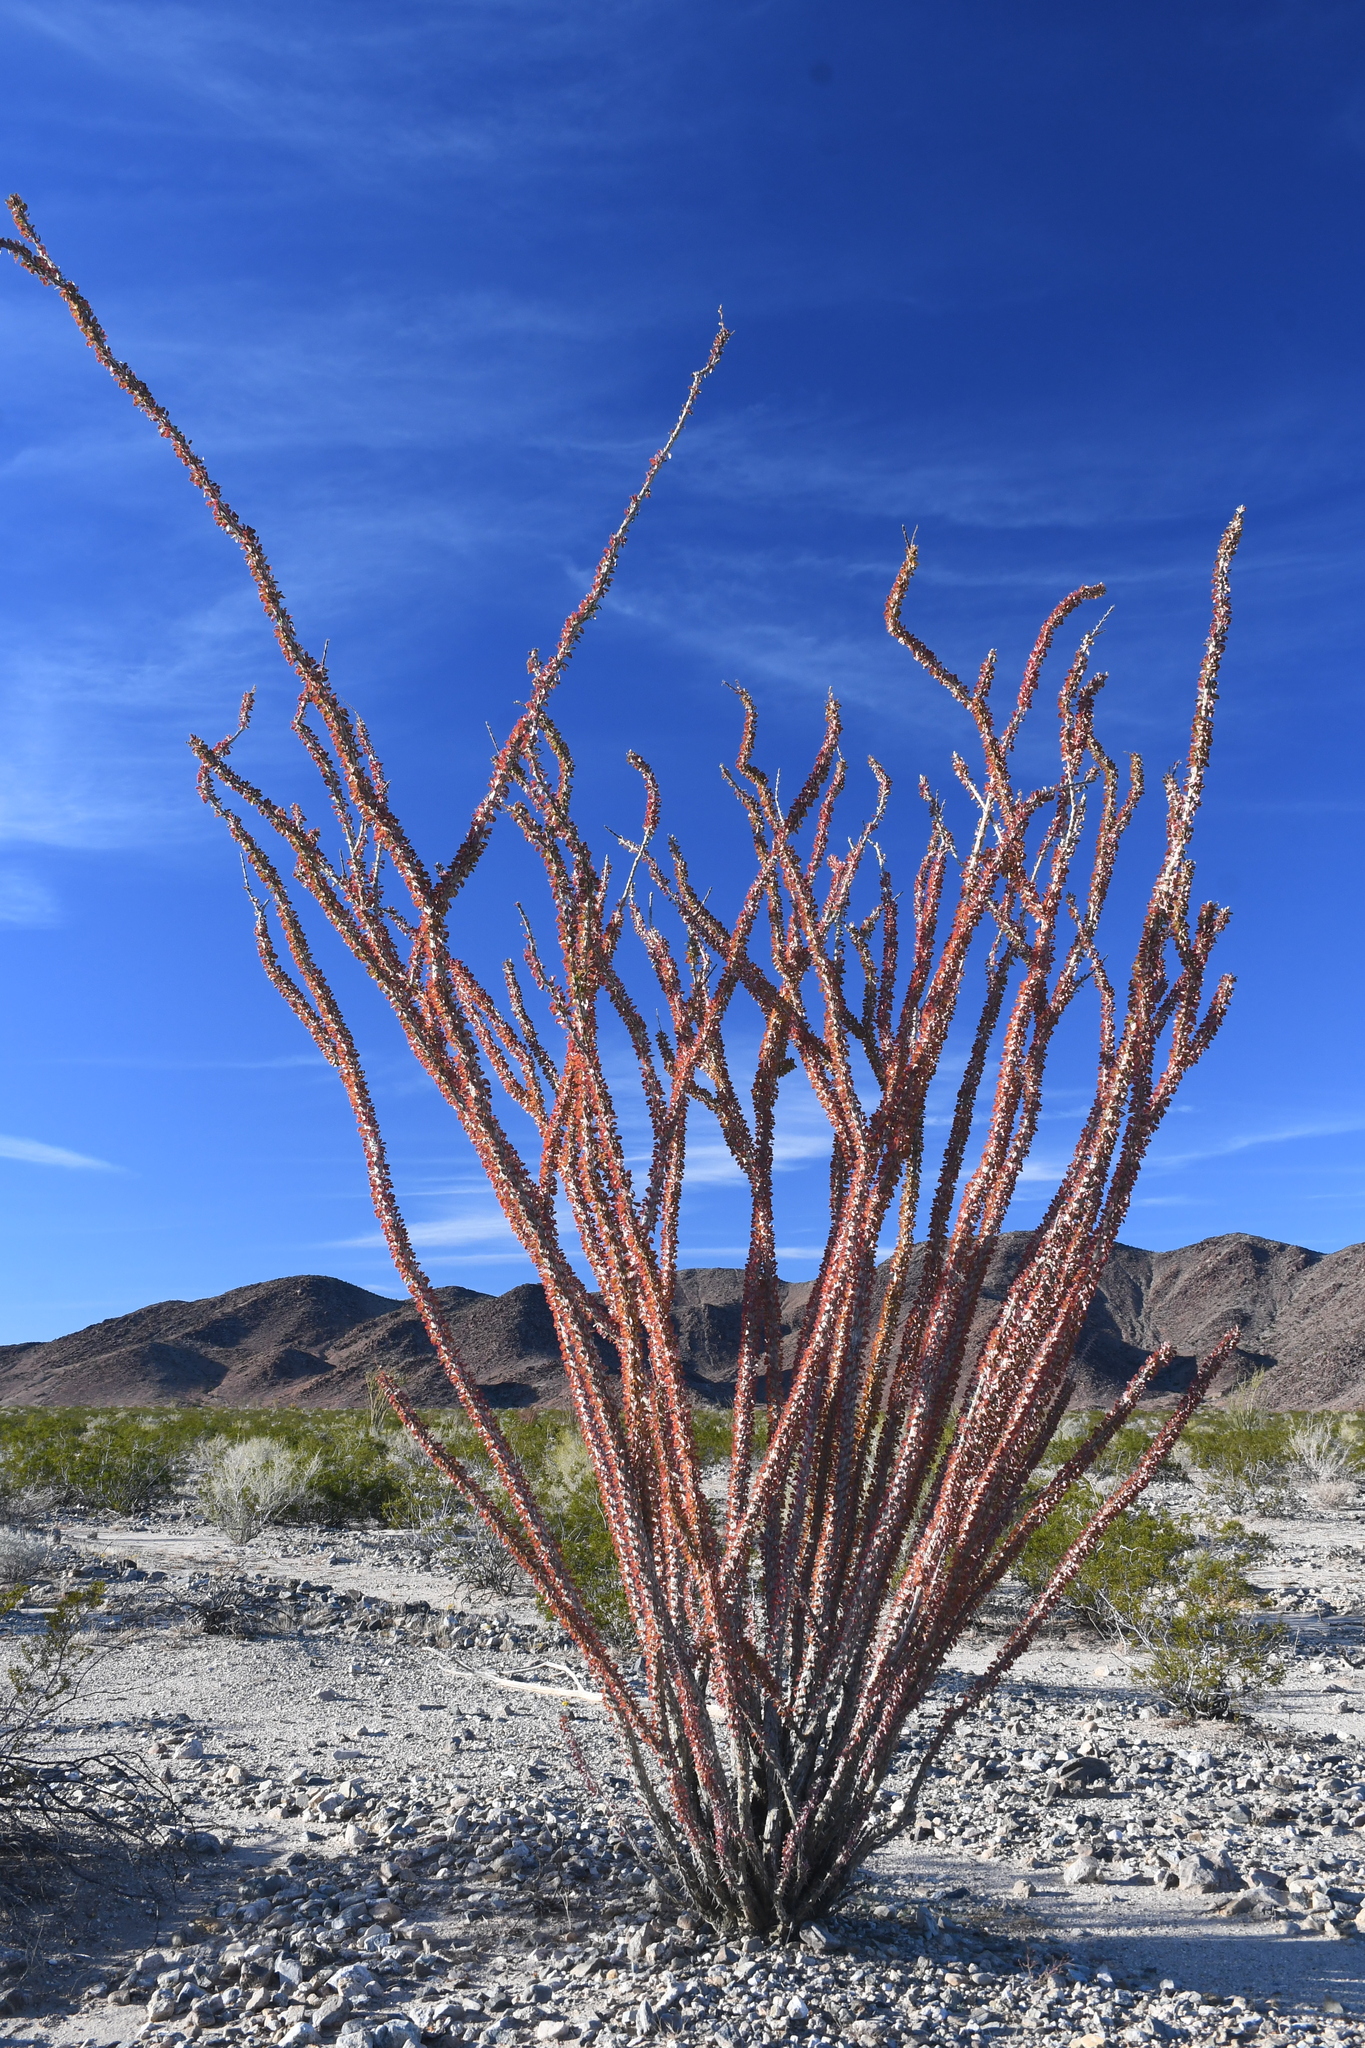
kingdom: Plantae
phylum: Tracheophyta
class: Magnoliopsida
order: Ericales
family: Fouquieriaceae
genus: Fouquieria
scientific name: Fouquieria splendens
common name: Vine-cactus
